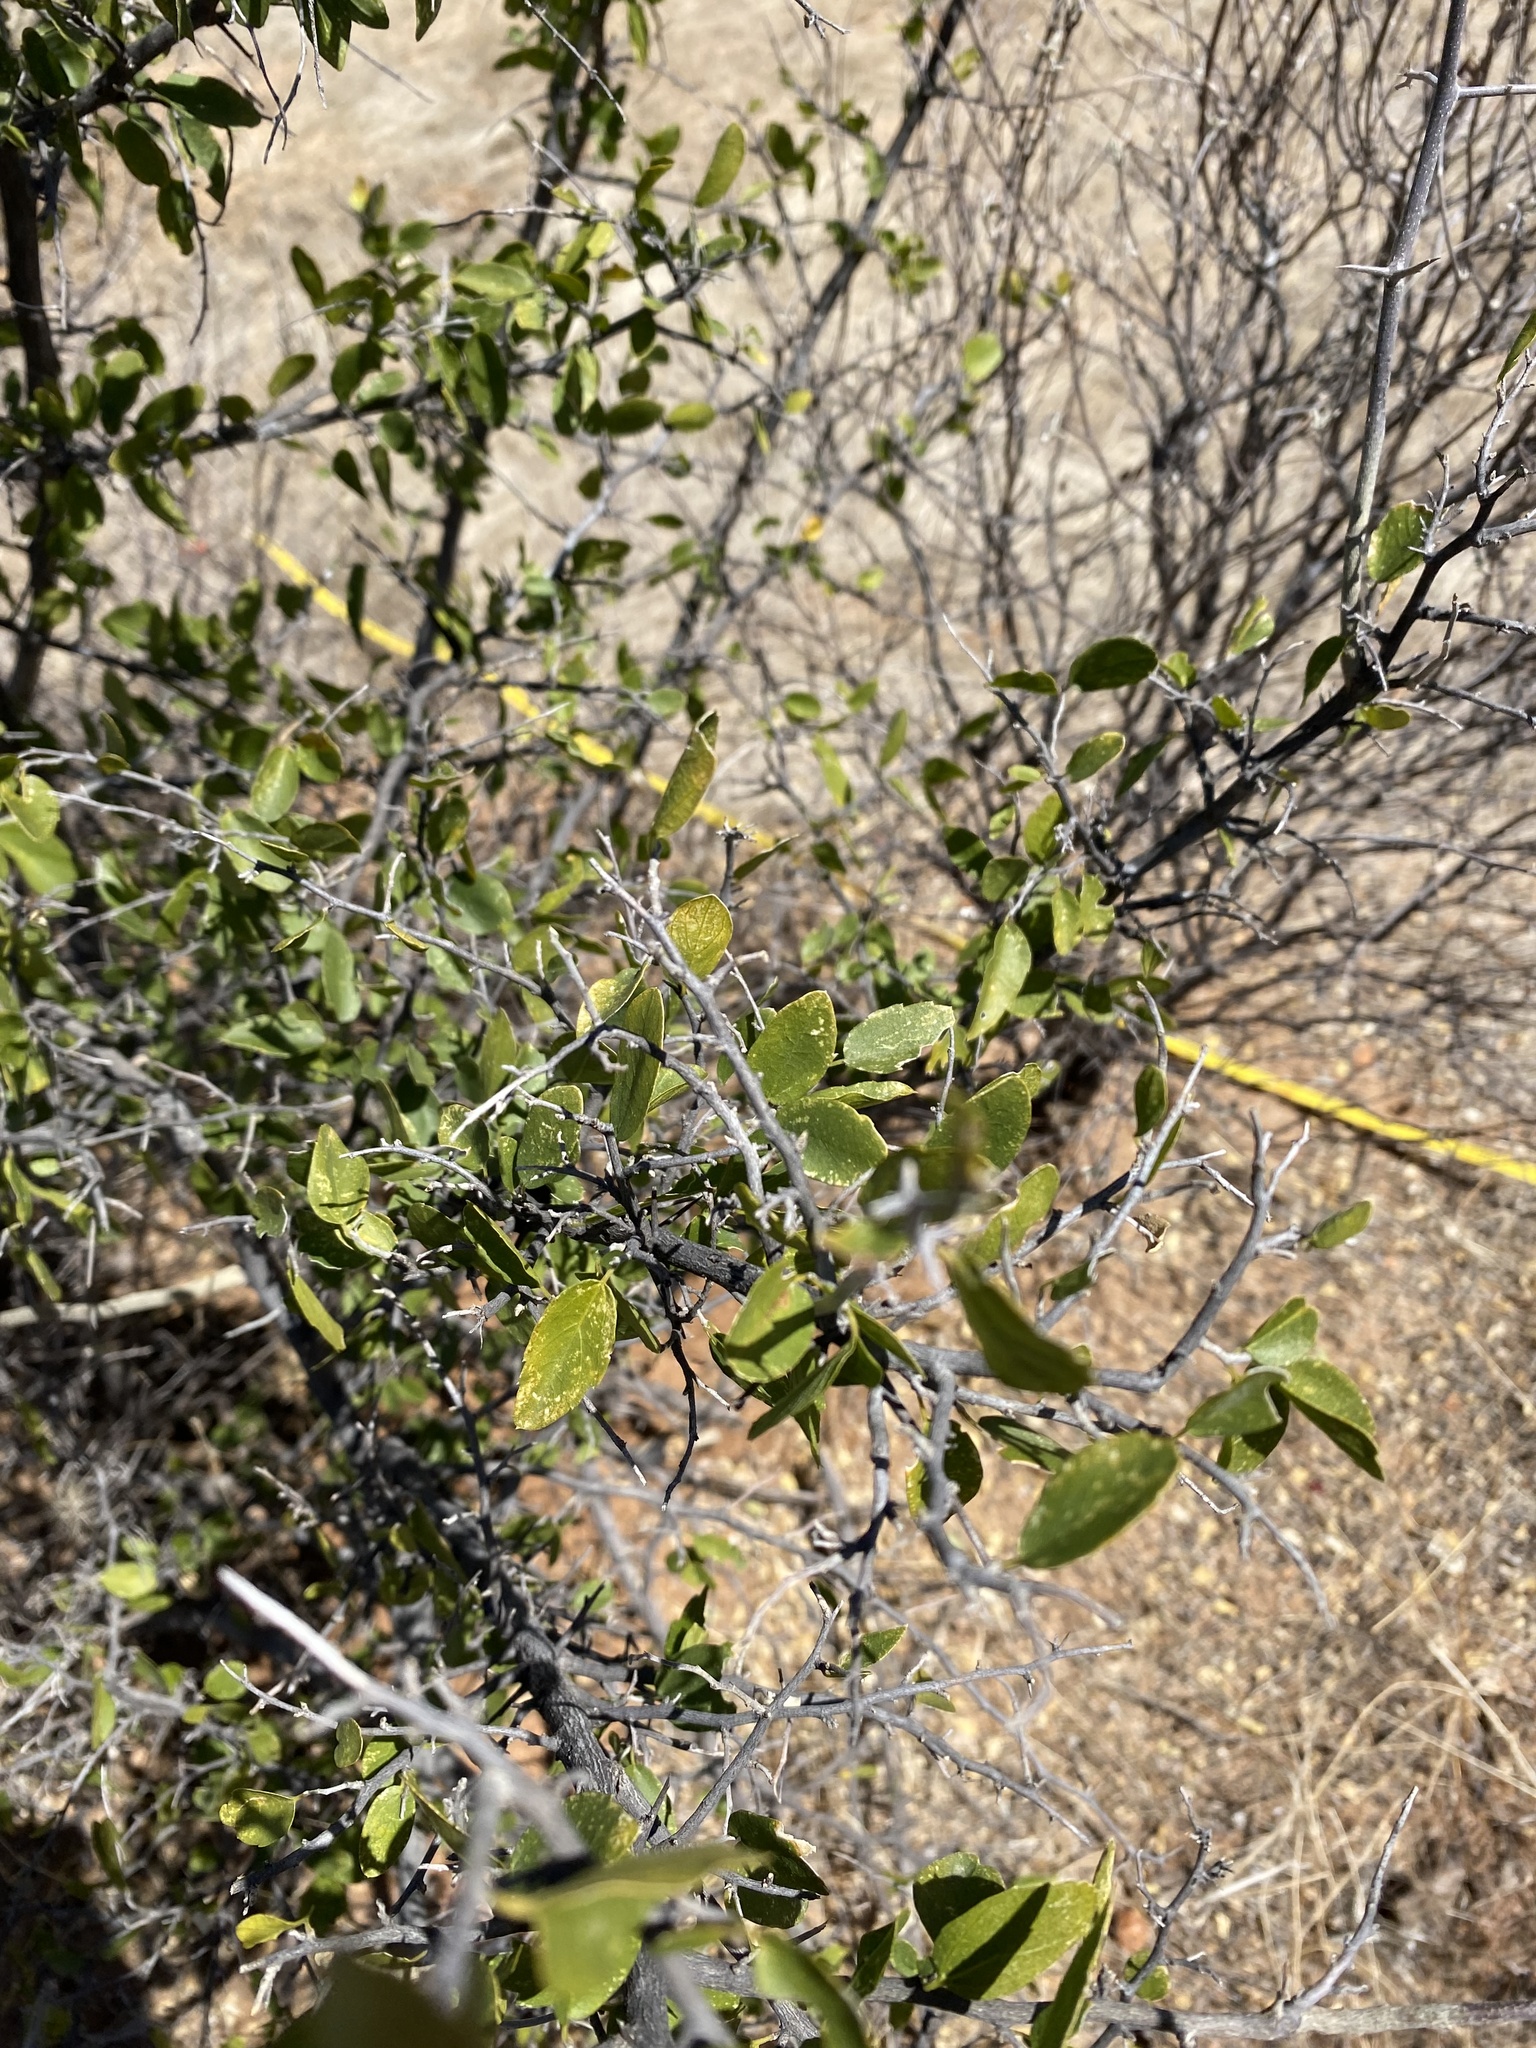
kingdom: Plantae
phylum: Tracheophyta
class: Magnoliopsida
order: Rosales
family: Cannabaceae
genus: Celtis
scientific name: Celtis pallida
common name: Desert hackberry
